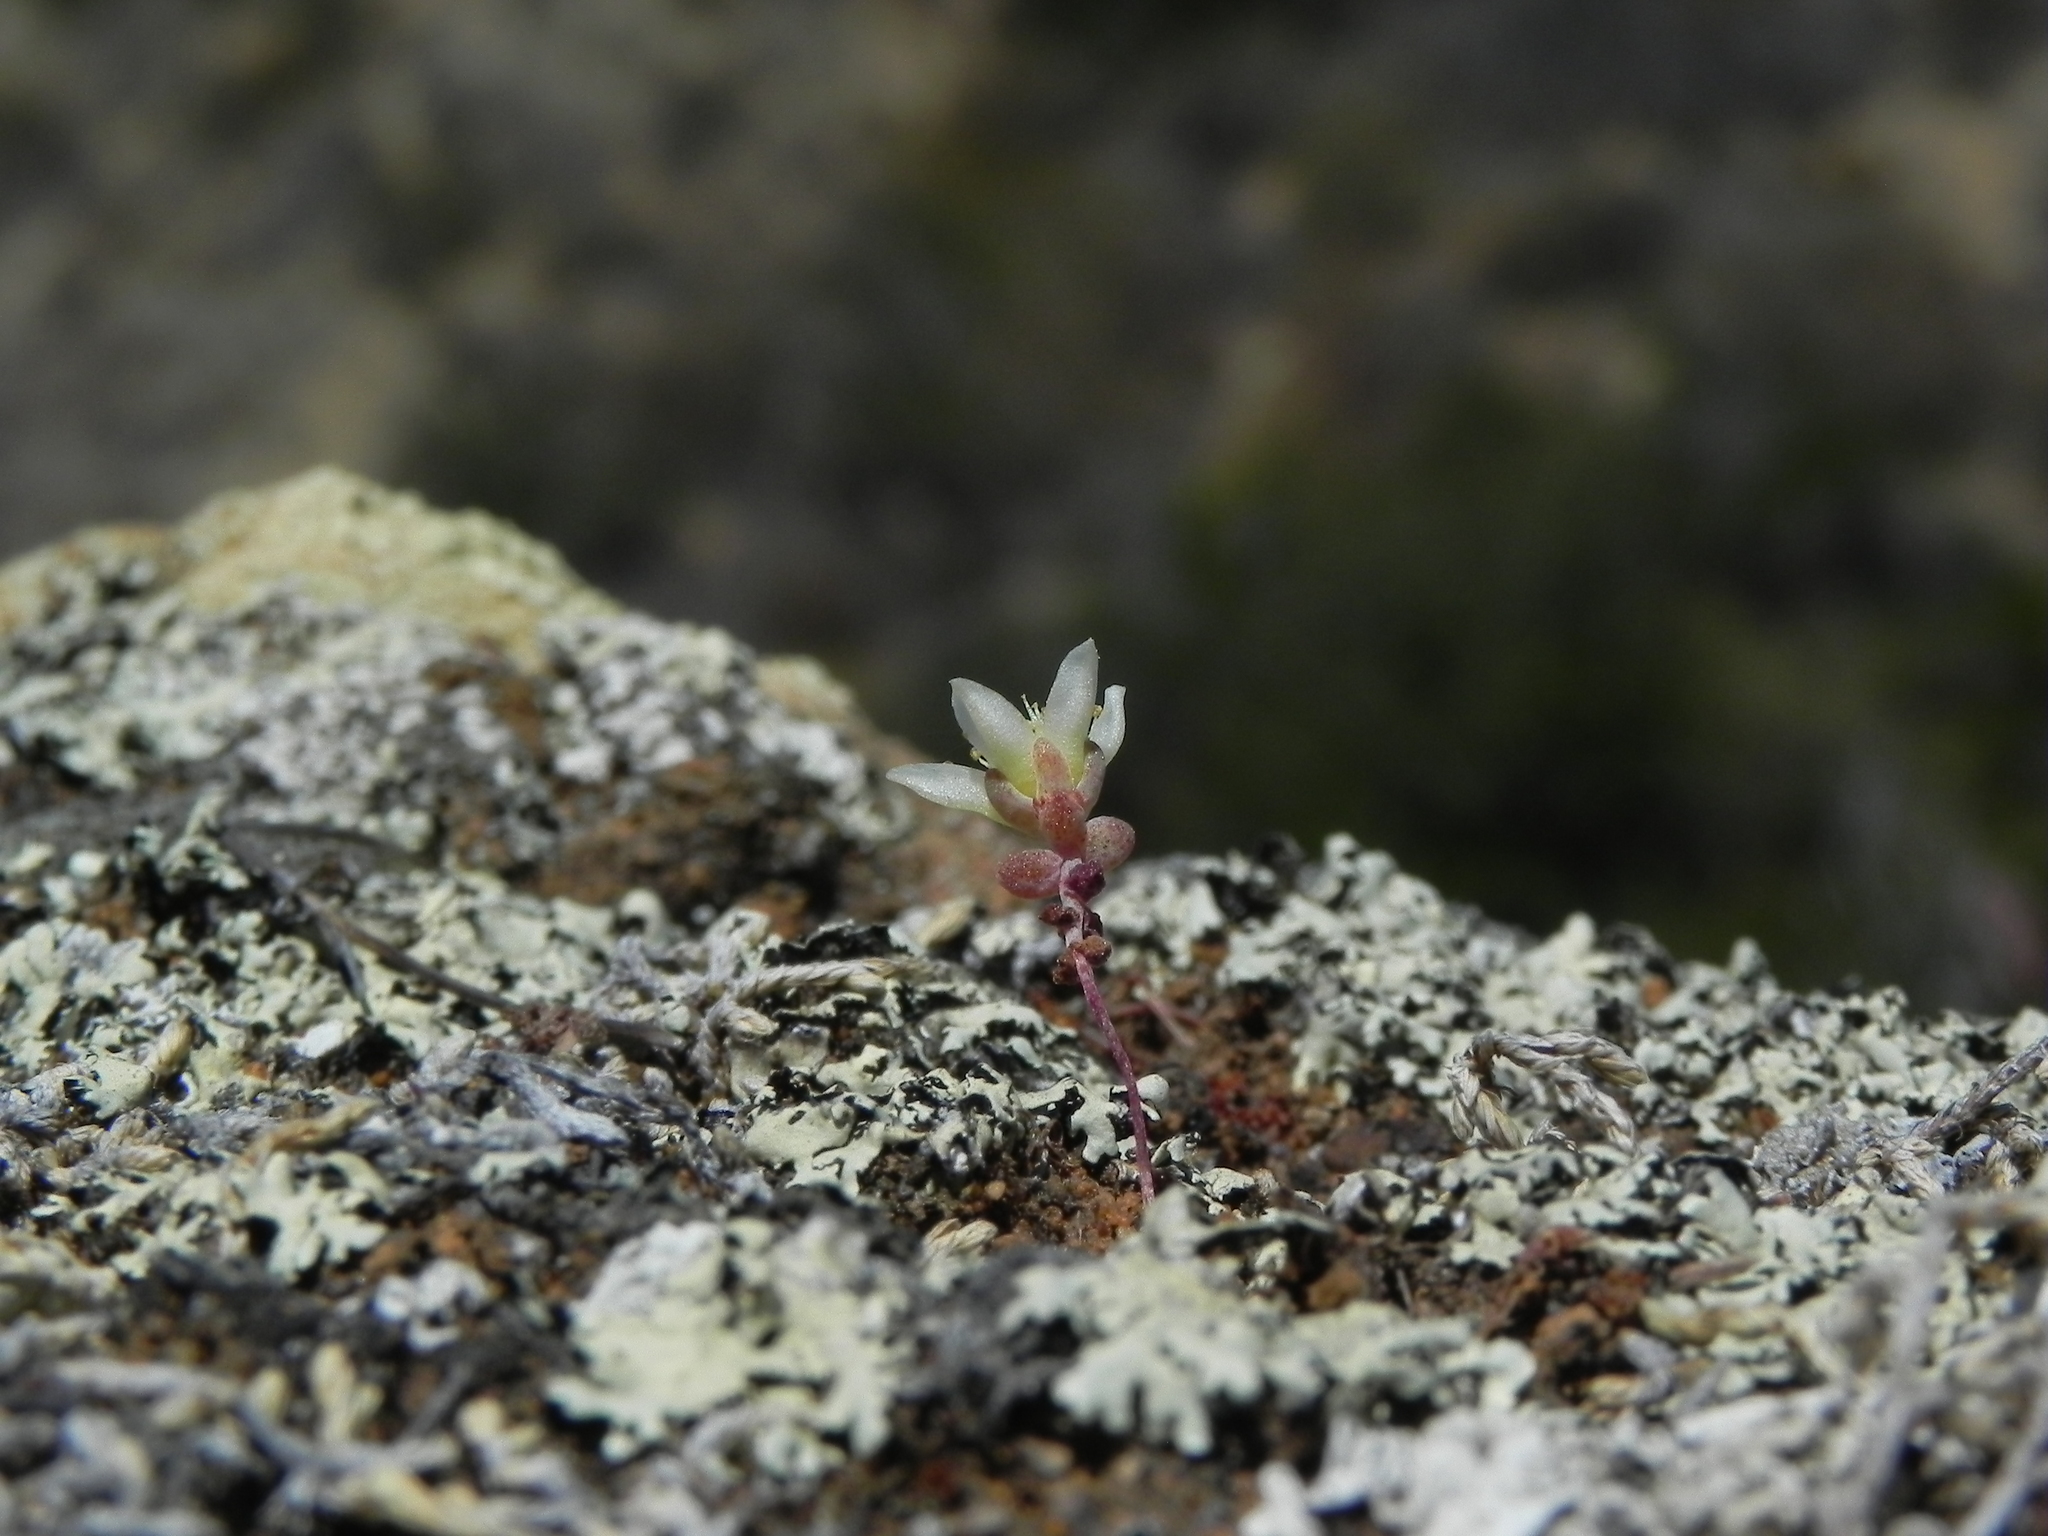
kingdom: Plantae
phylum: Tracheophyta
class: Magnoliopsida
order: Saxifragales
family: Crassulaceae
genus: Dudleya
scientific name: Dudleya blochmaniae
